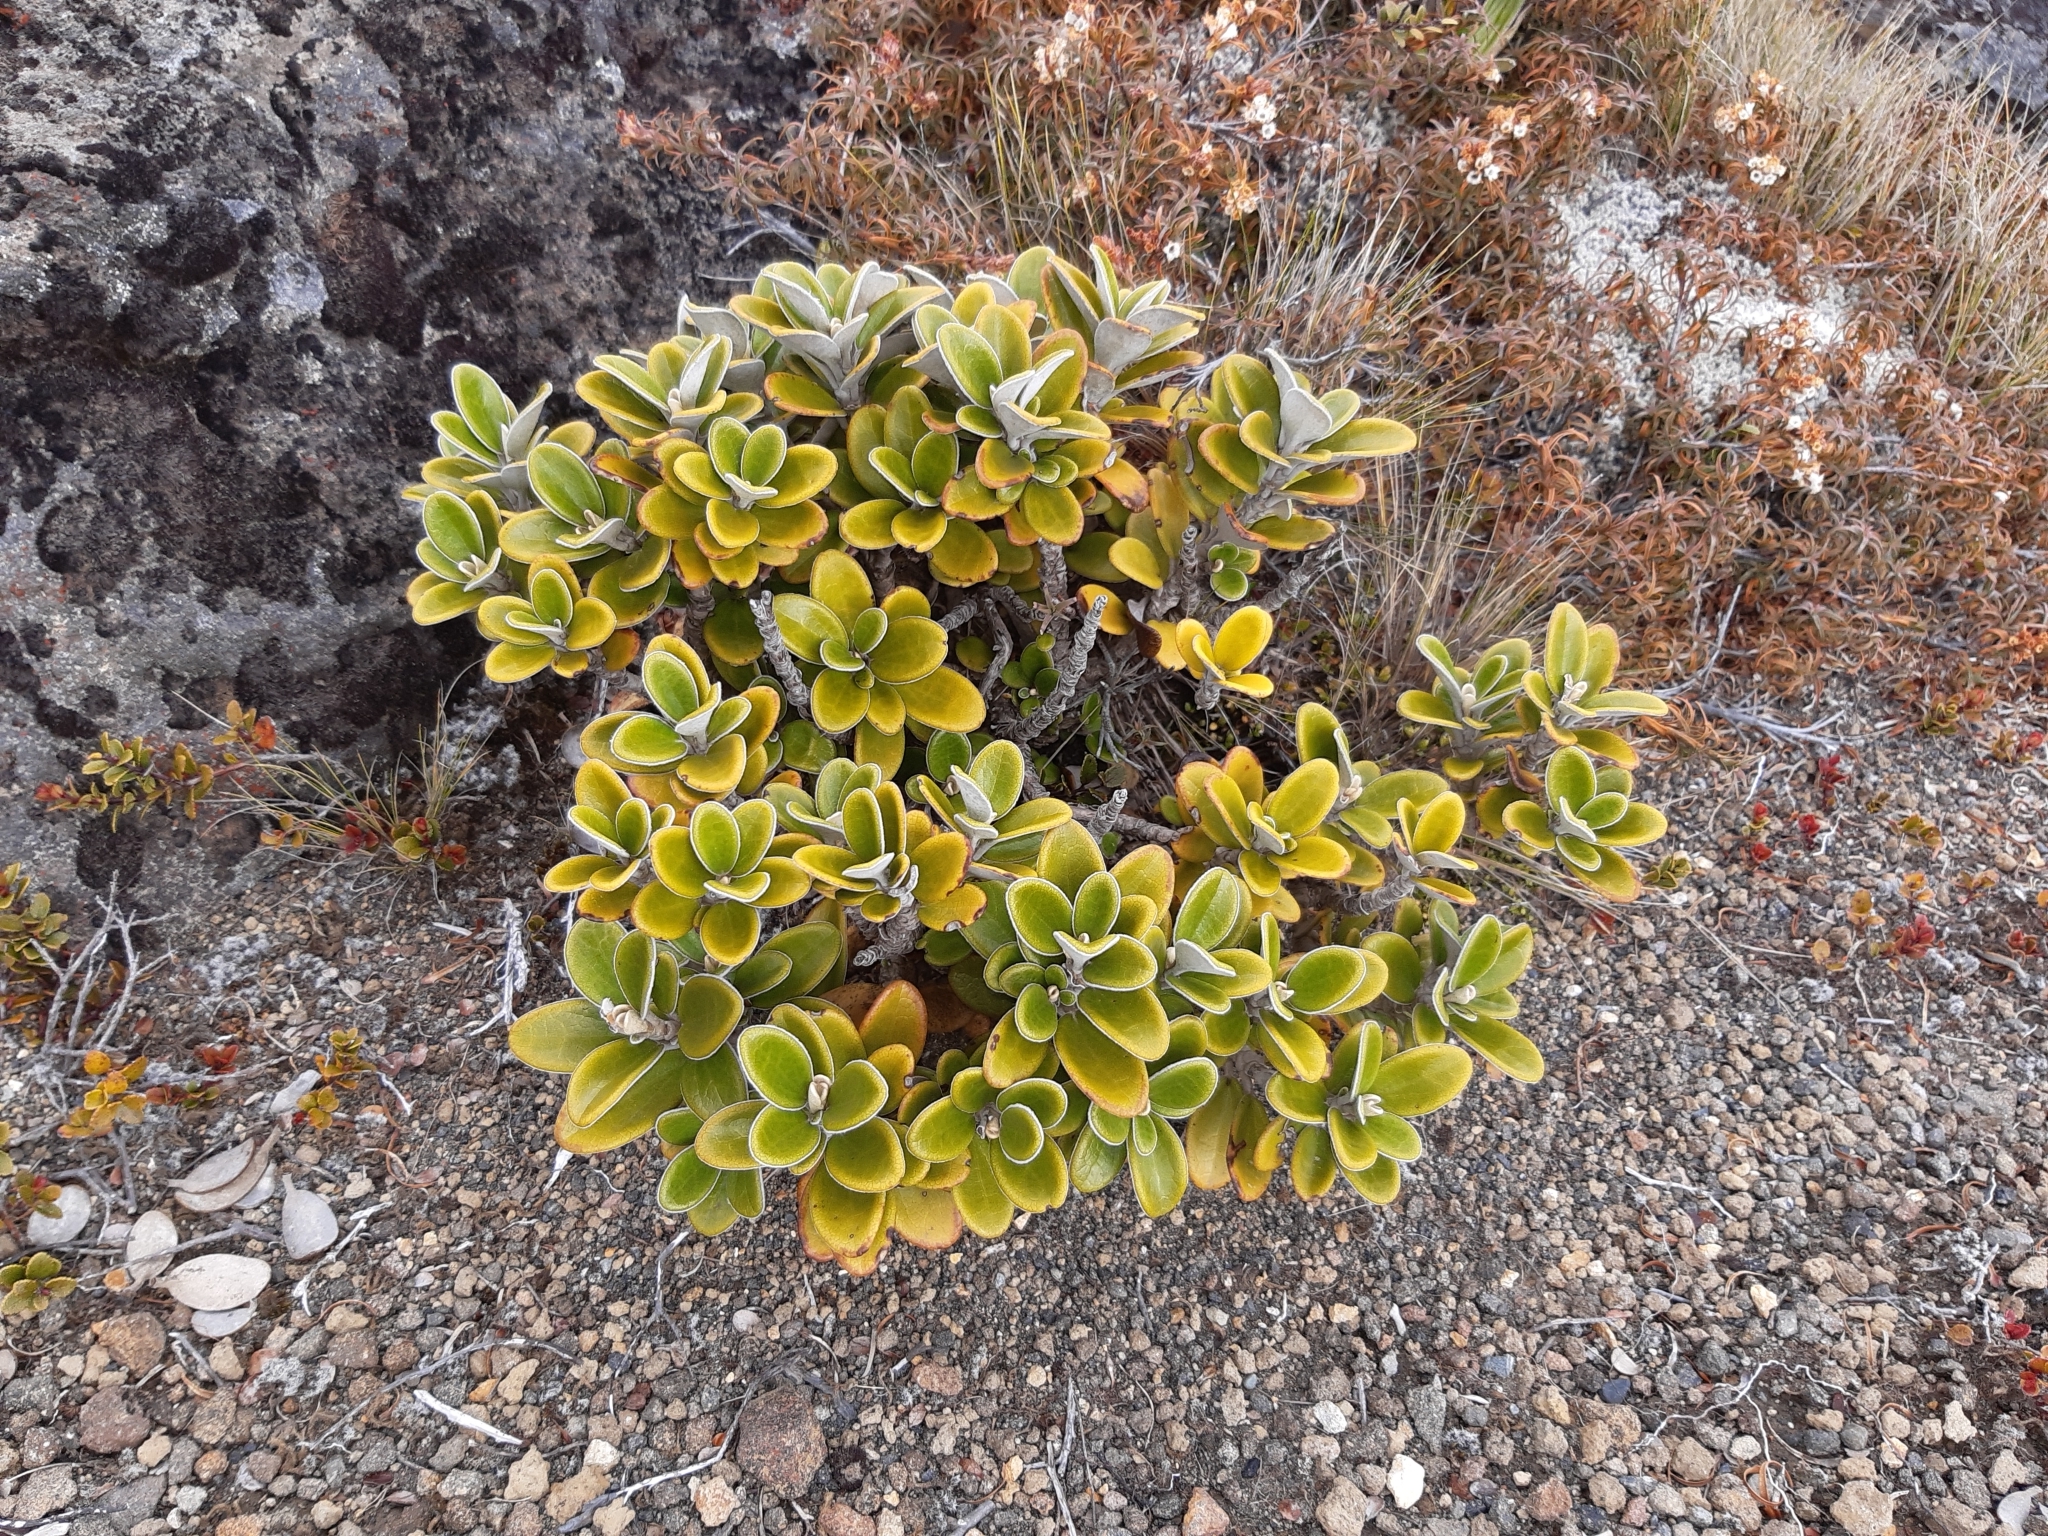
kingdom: Plantae
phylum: Tracheophyta
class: Magnoliopsida
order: Asterales
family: Asteraceae
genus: Brachyglottis
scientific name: Brachyglottis bidwillii
